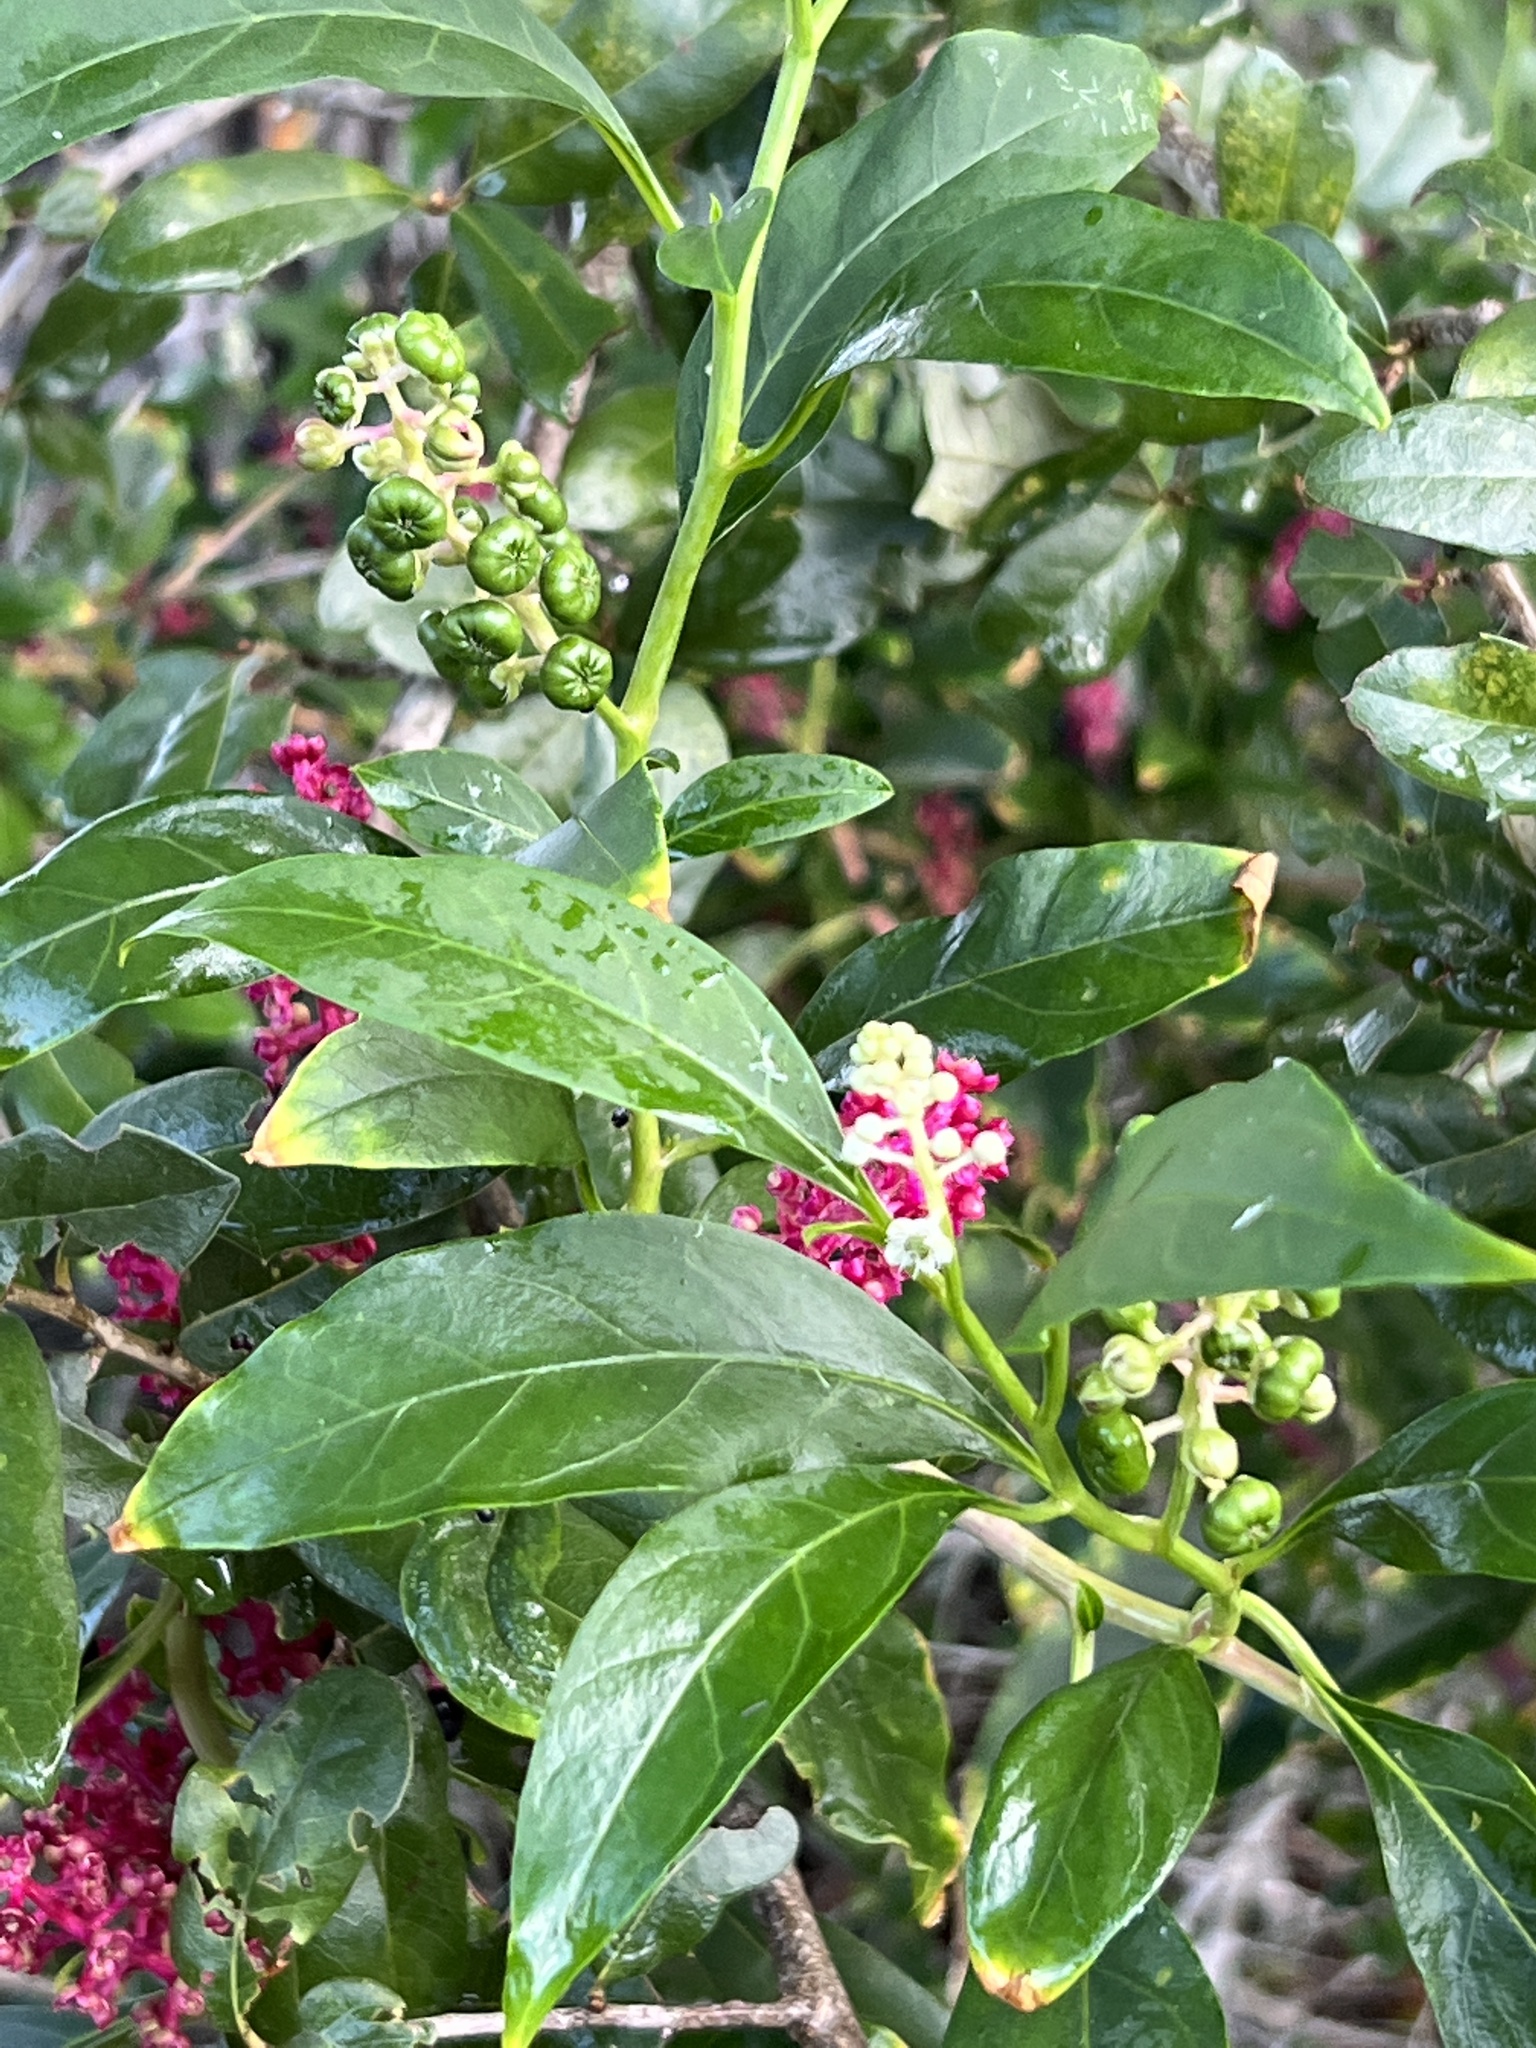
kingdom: Plantae
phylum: Tracheophyta
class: Magnoliopsida
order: Caryophyllales
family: Phytolaccaceae
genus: Phytolacca
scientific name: Phytolacca americana
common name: American pokeweed
